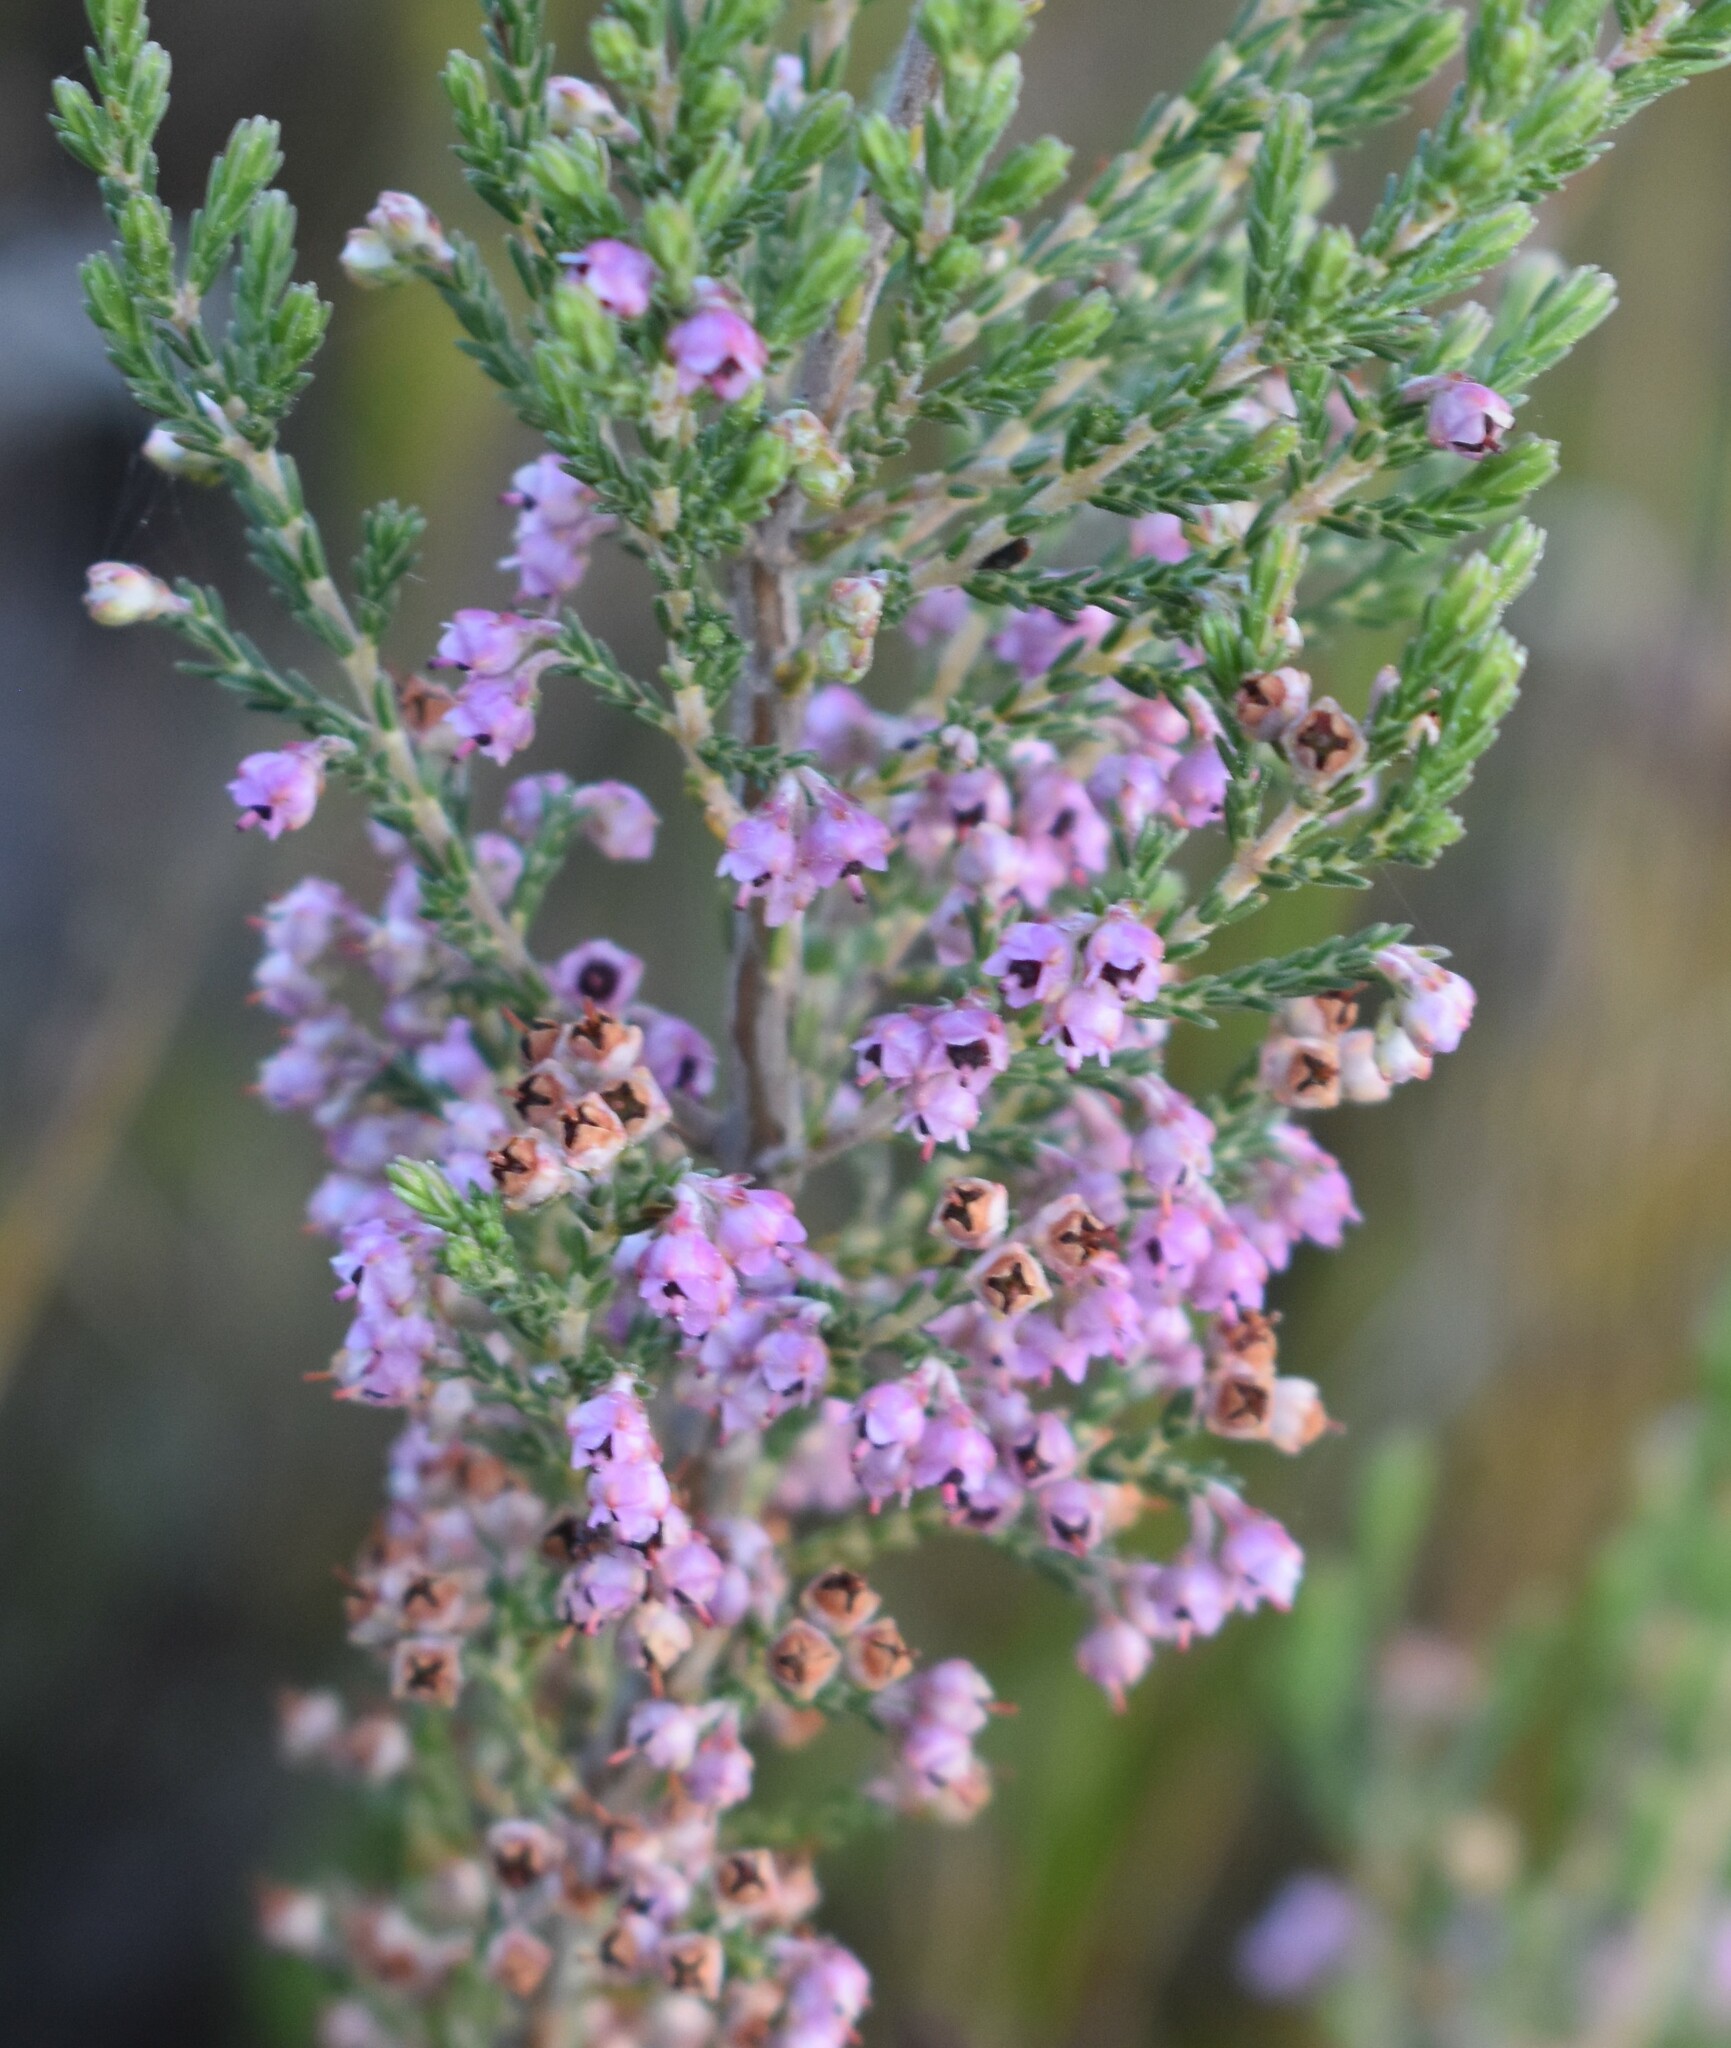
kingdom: Plantae
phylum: Tracheophyta
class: Magnoliopsida
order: Ericales
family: Ericaceae
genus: Erica
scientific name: Erica lucida
